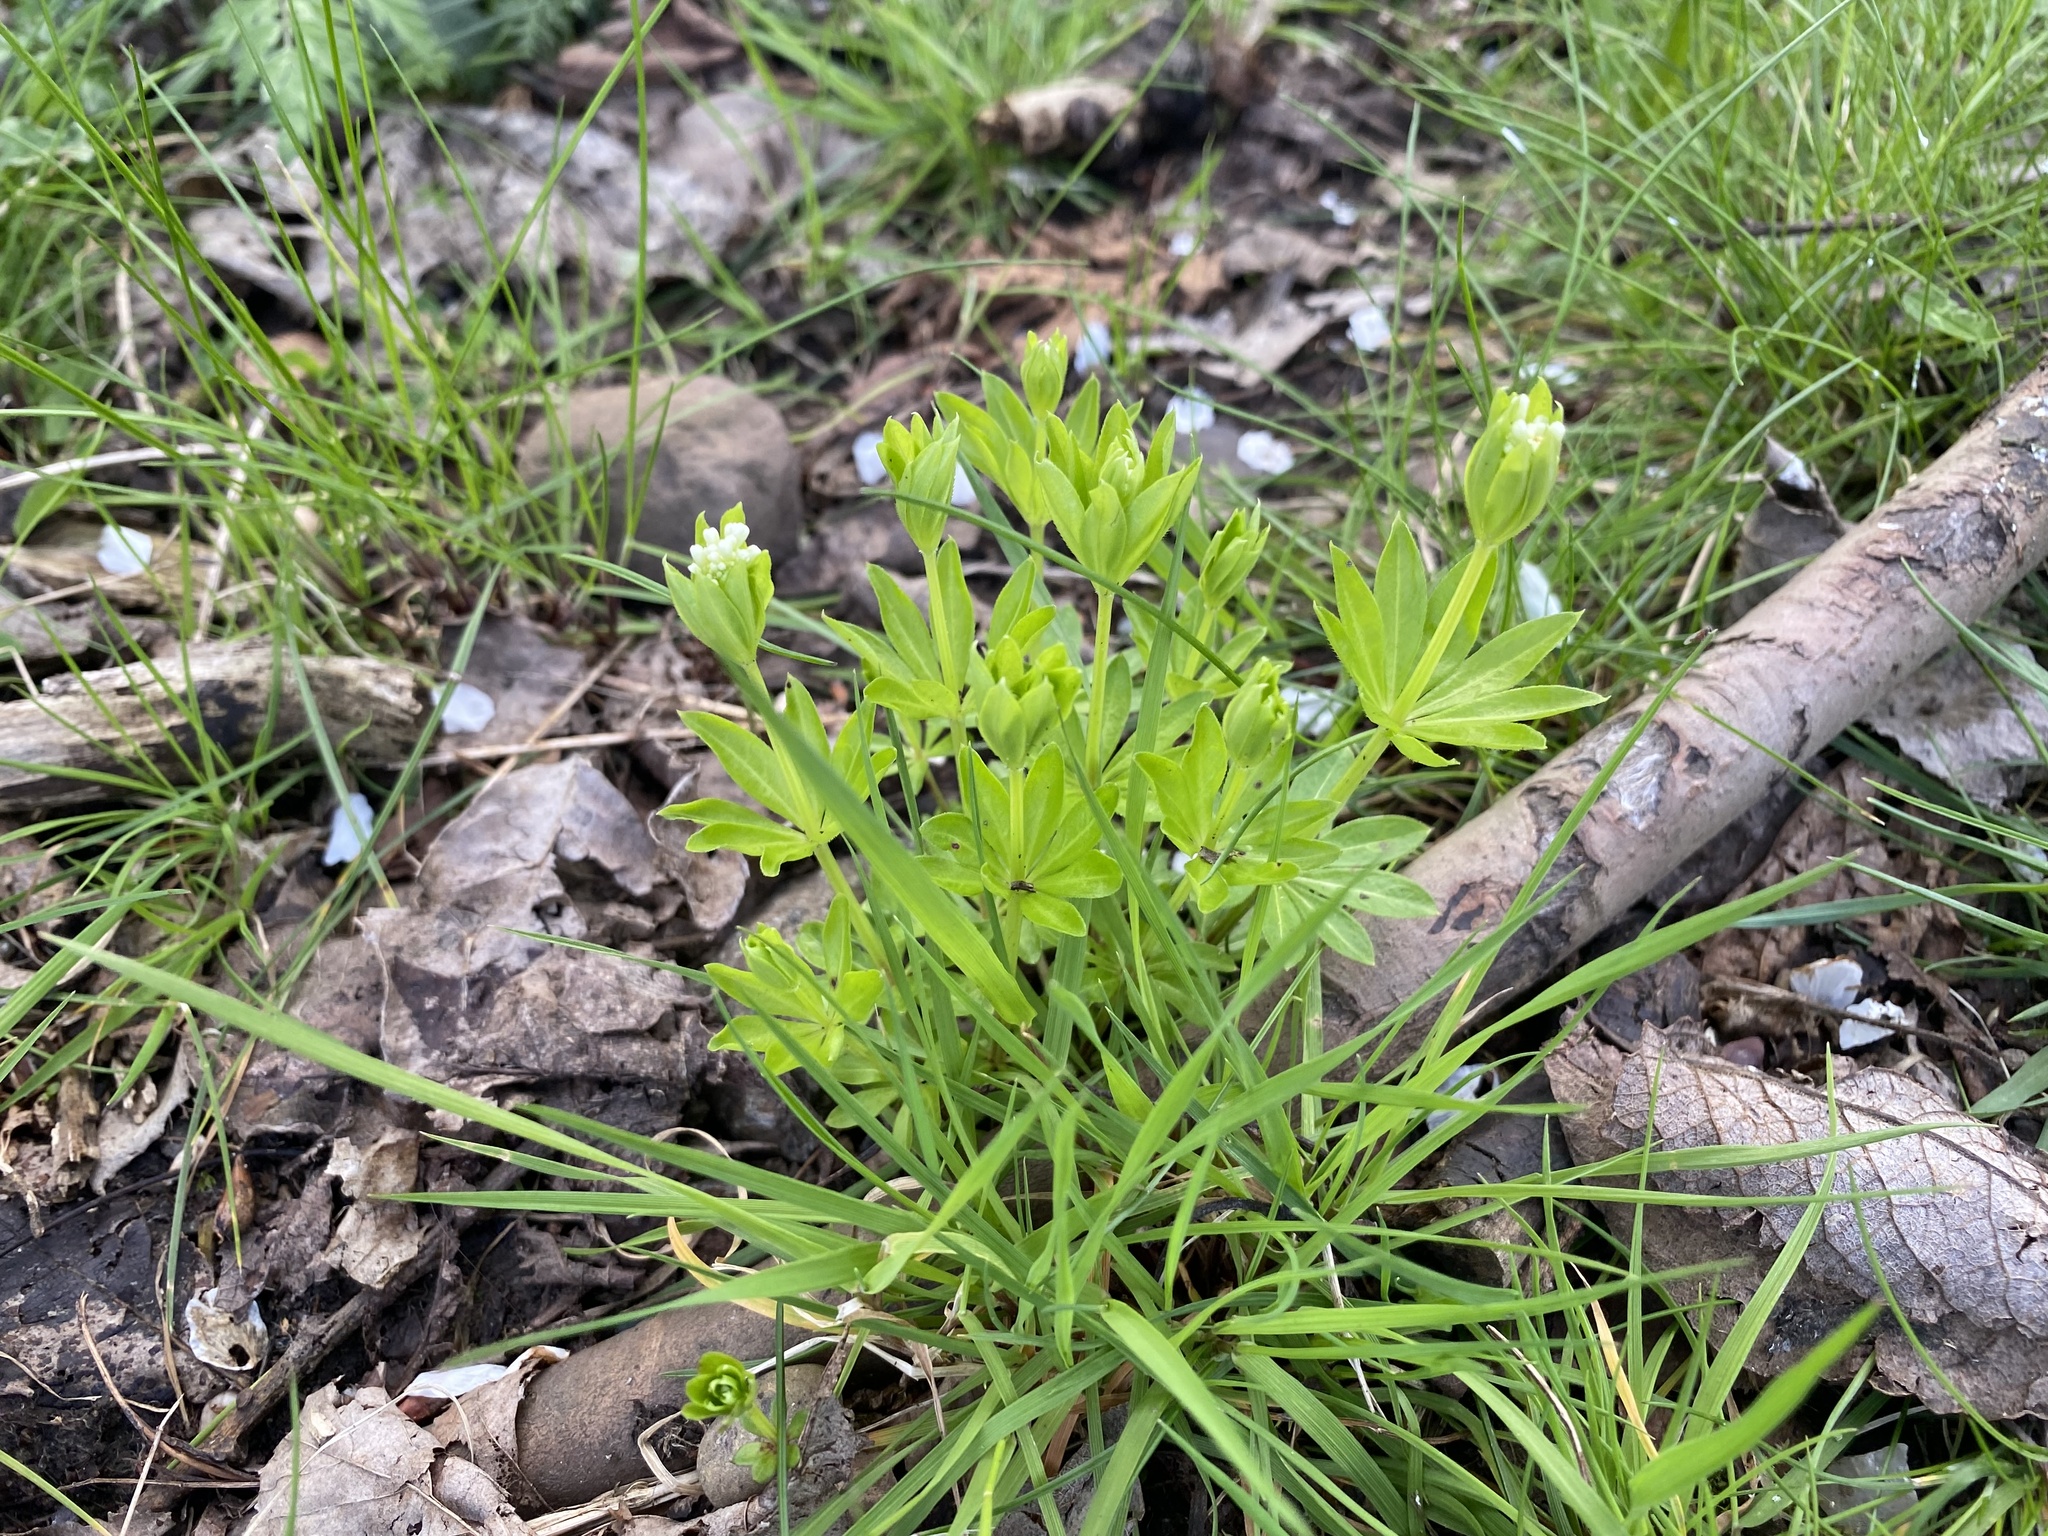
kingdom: Plantae
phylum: Tracheophyta
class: Magnoliopsida
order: Gentianales
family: Rubiaceae
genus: Galium
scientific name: Galium odoratum
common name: Sweet woodruff
